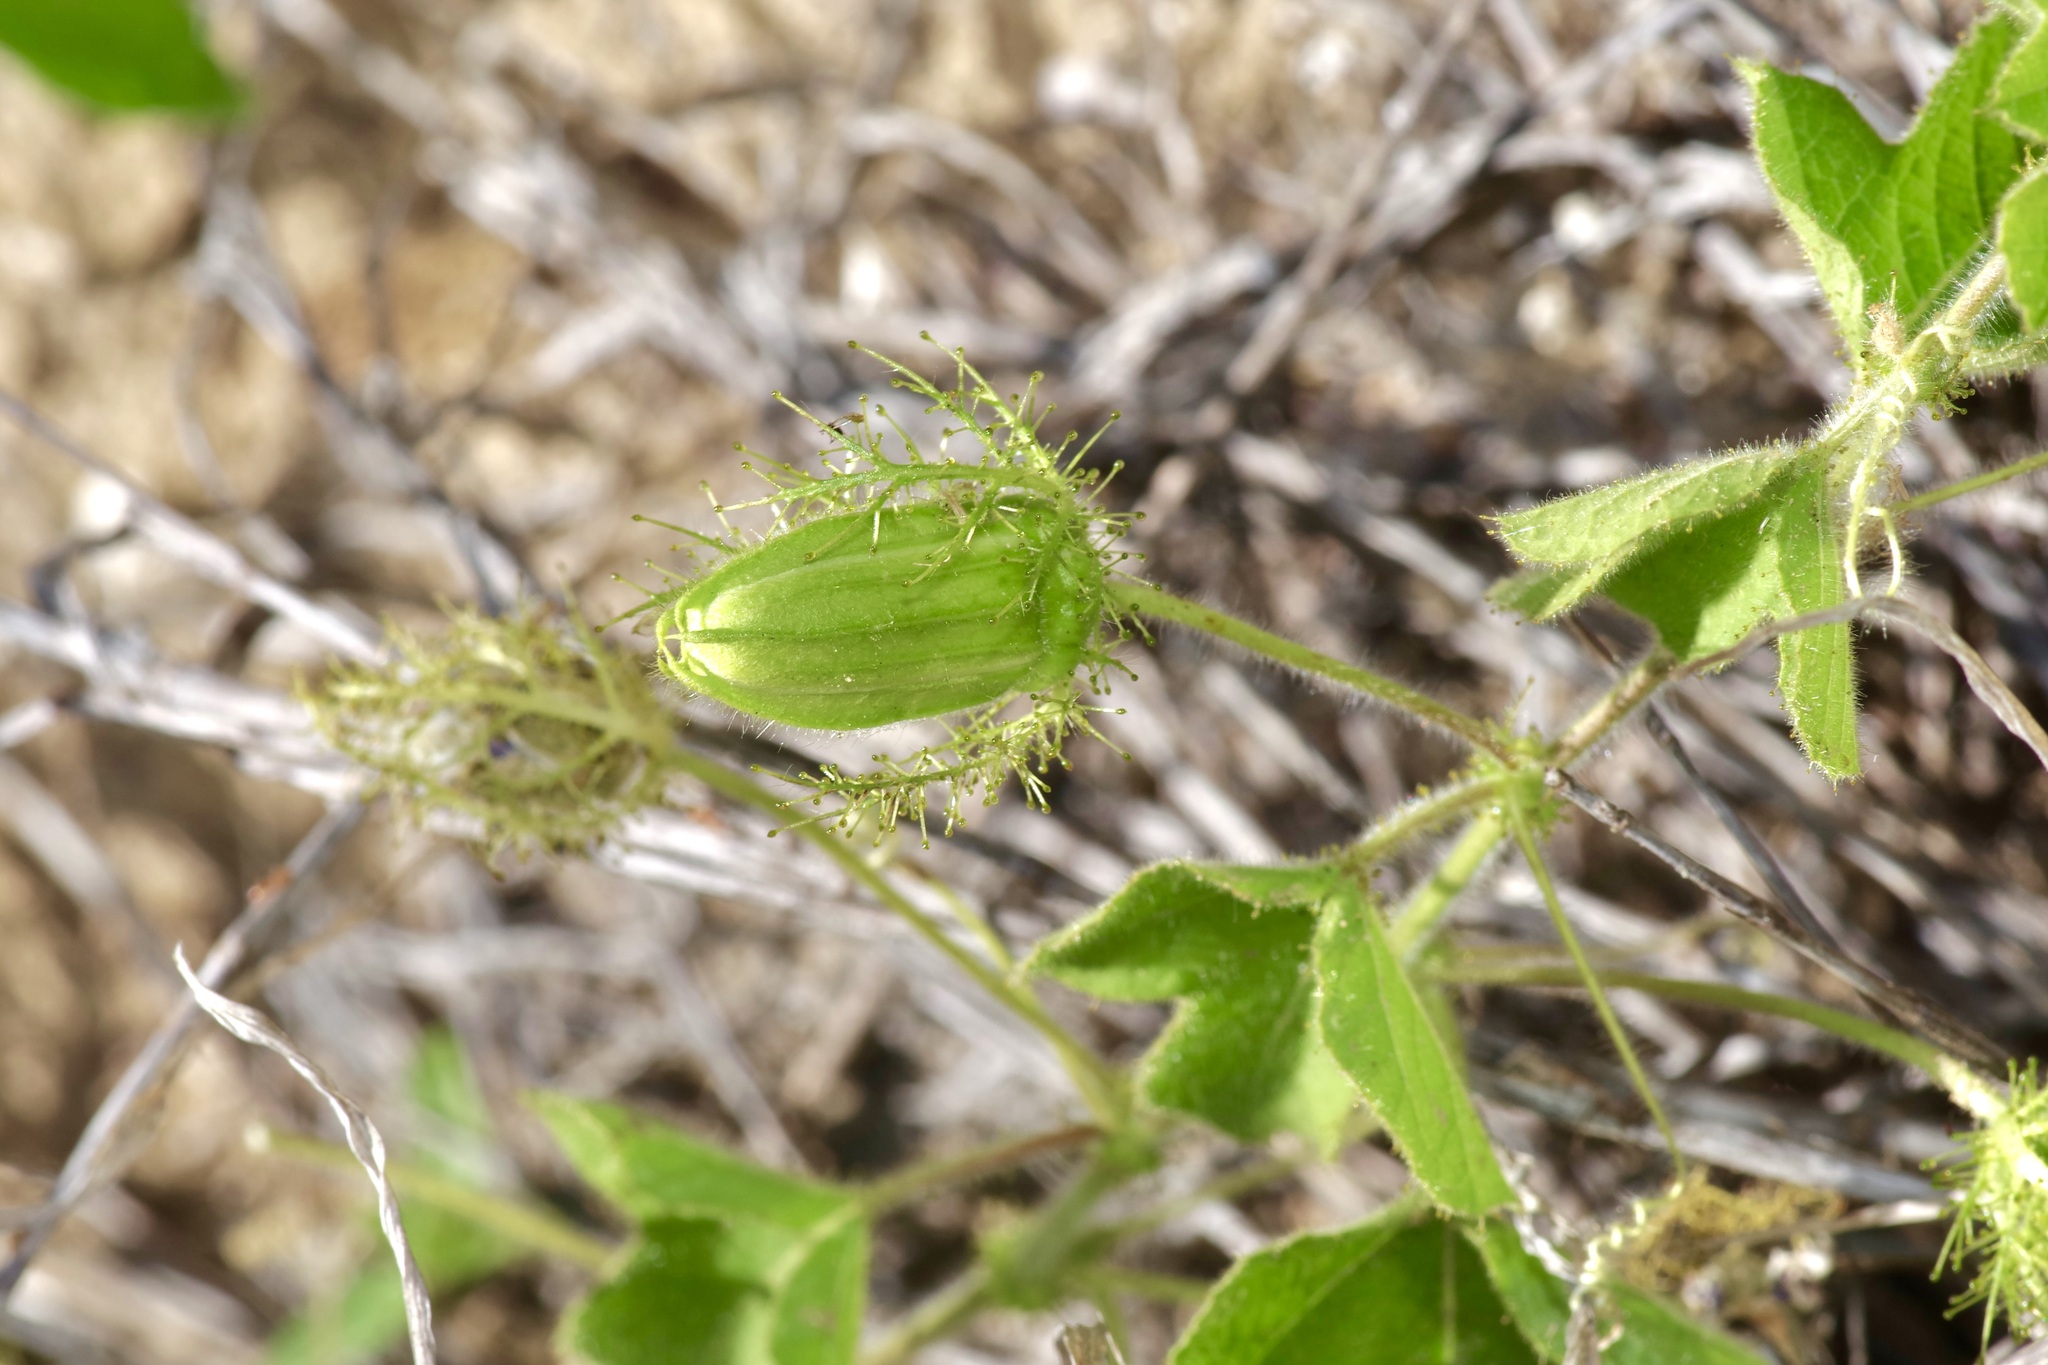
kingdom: Plantae
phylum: Tracheophyta
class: Magnoliopsida
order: Malpighiales
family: Passifloraceae
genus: Passiflora
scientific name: Passiflora foetida
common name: Fetid passionflower
